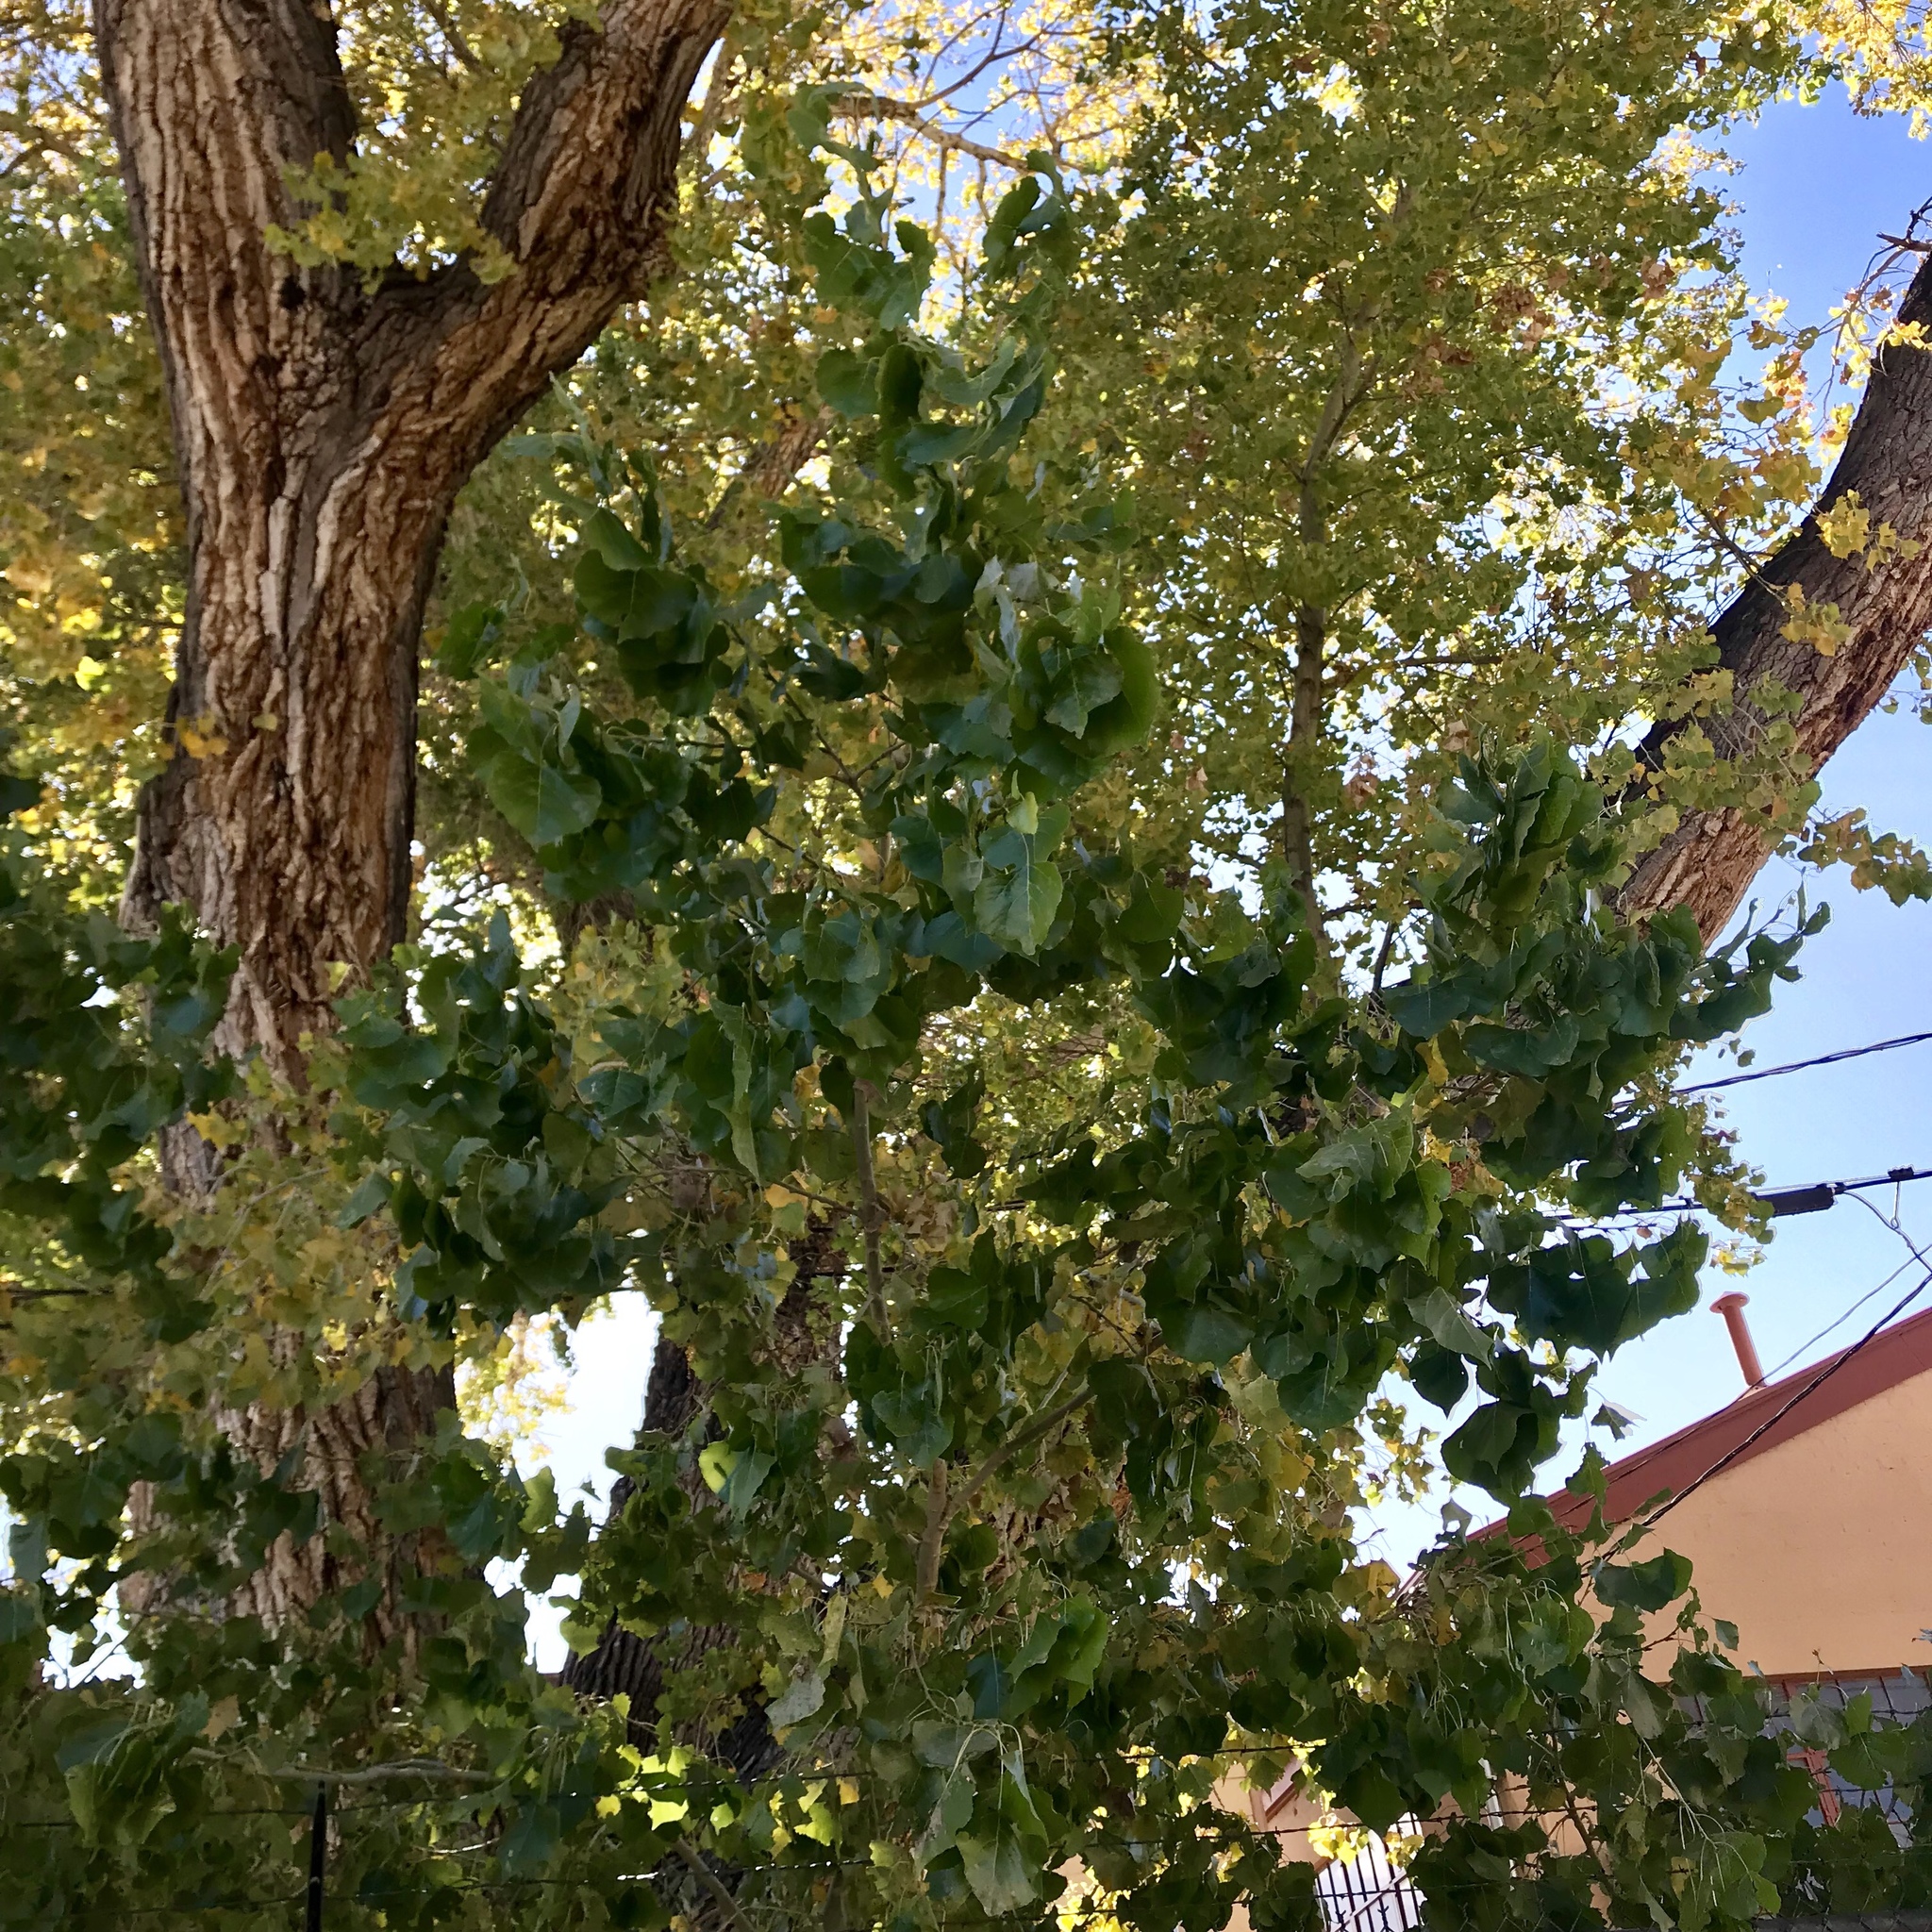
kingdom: Plantae
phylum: Tracheophyta
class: Magnoliopsida
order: Malpighiales
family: Salicaceae
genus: Populus
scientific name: Populus fremontii
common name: Fremont's cottonwood
